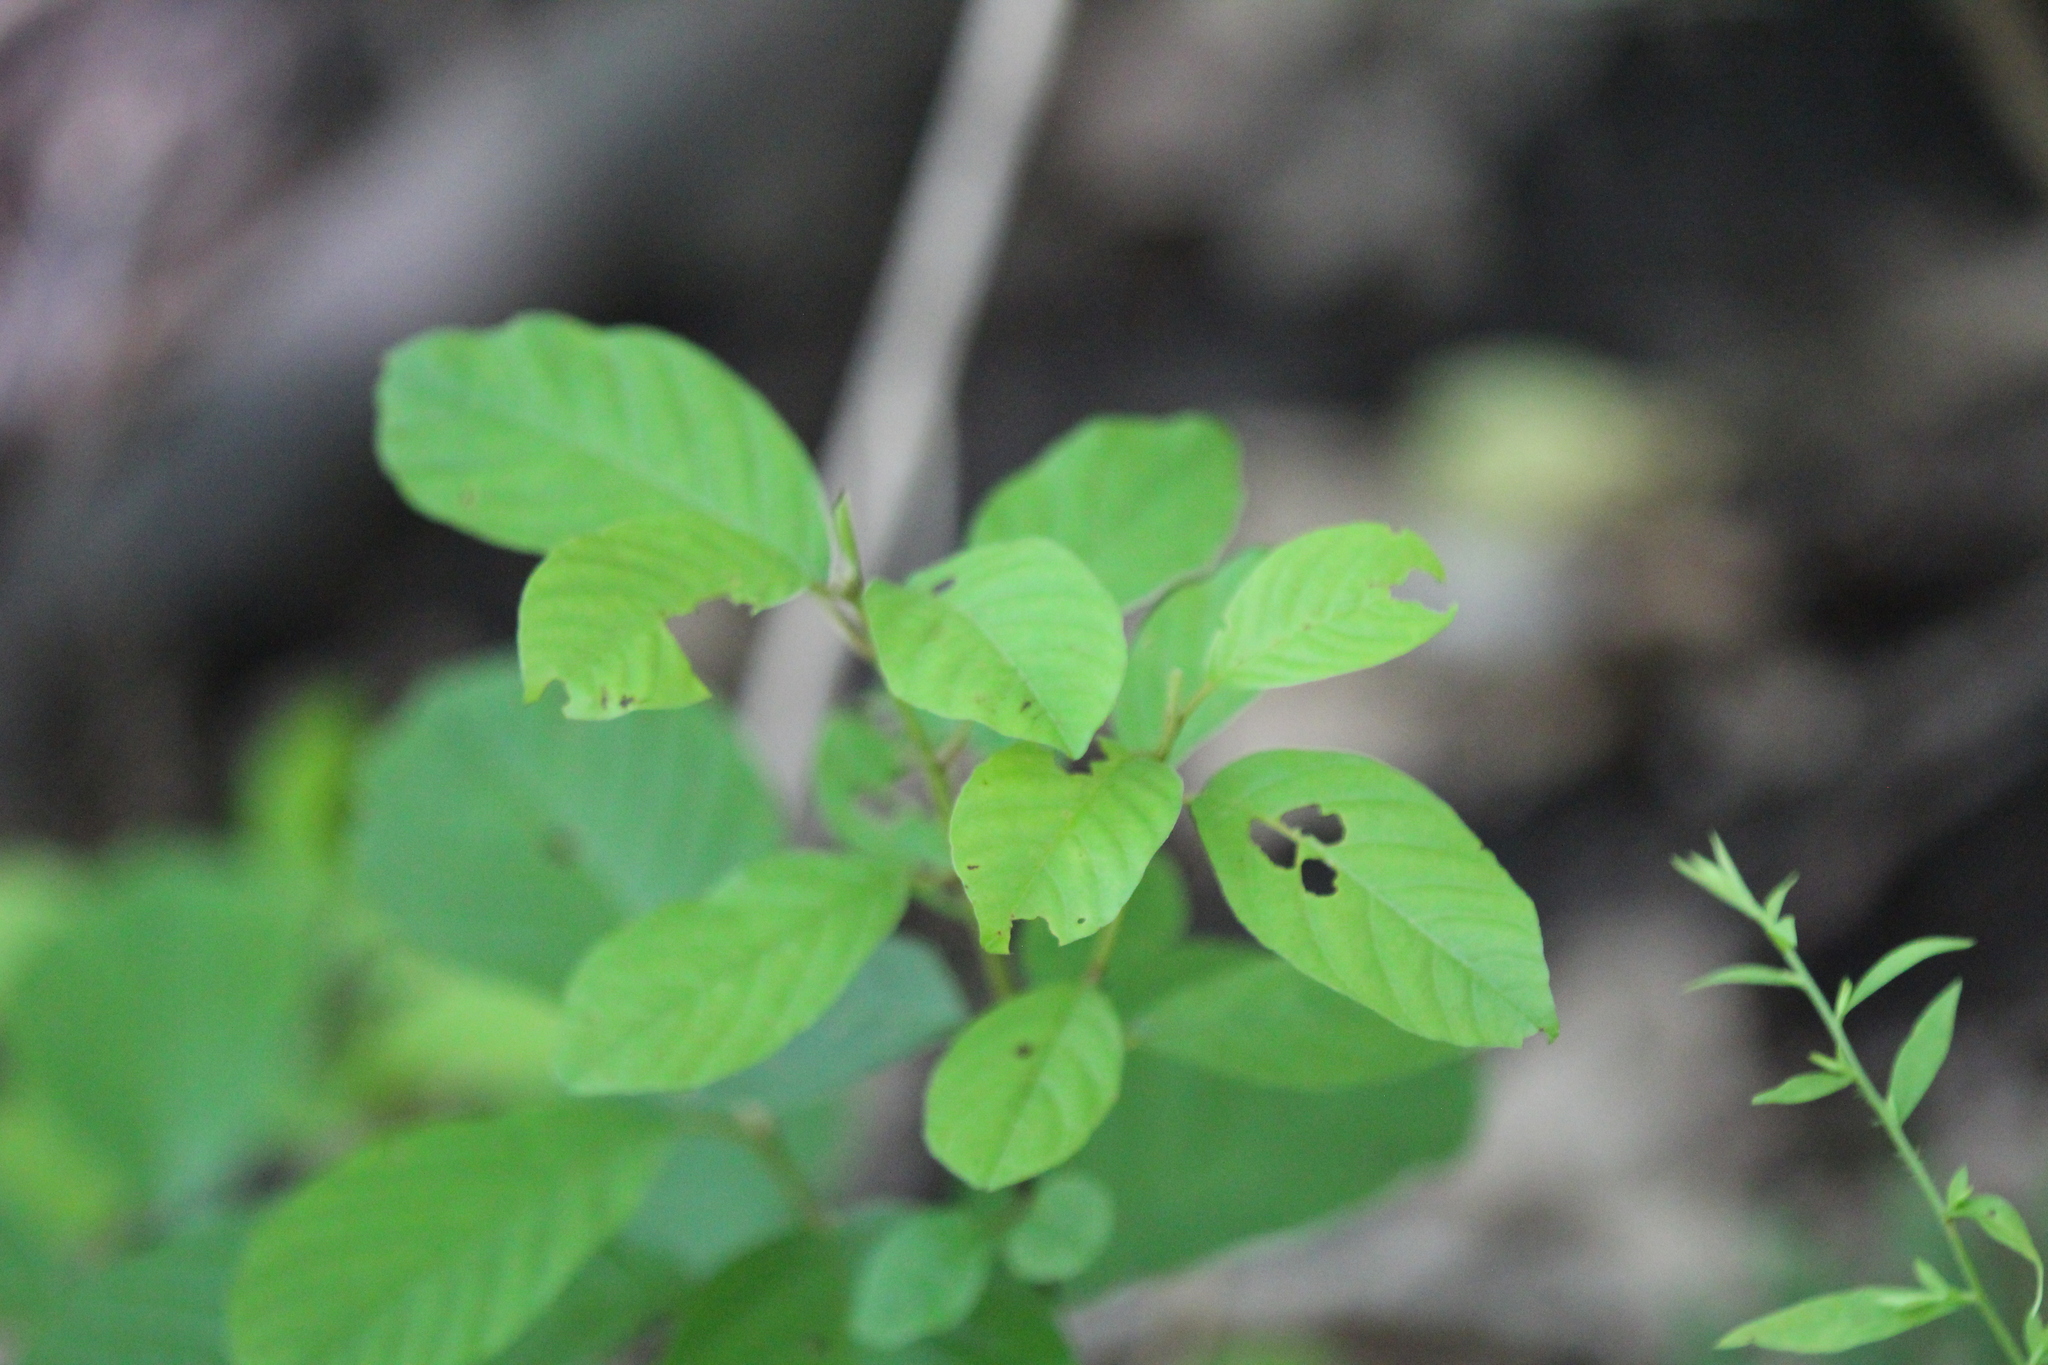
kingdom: Plantae
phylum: Tracheophyta
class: Magnoliopsida
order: Rosales
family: Rhamnaceae
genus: Frangula
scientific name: Frangula alnus
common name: Alder buckthorn
